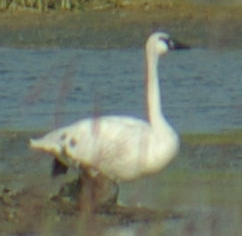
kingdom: Animalia
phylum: Chordata
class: Aves
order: Anseriformes
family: Anatidae
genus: Cygnus
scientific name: Cygnus columbianus
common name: Tundra swan
